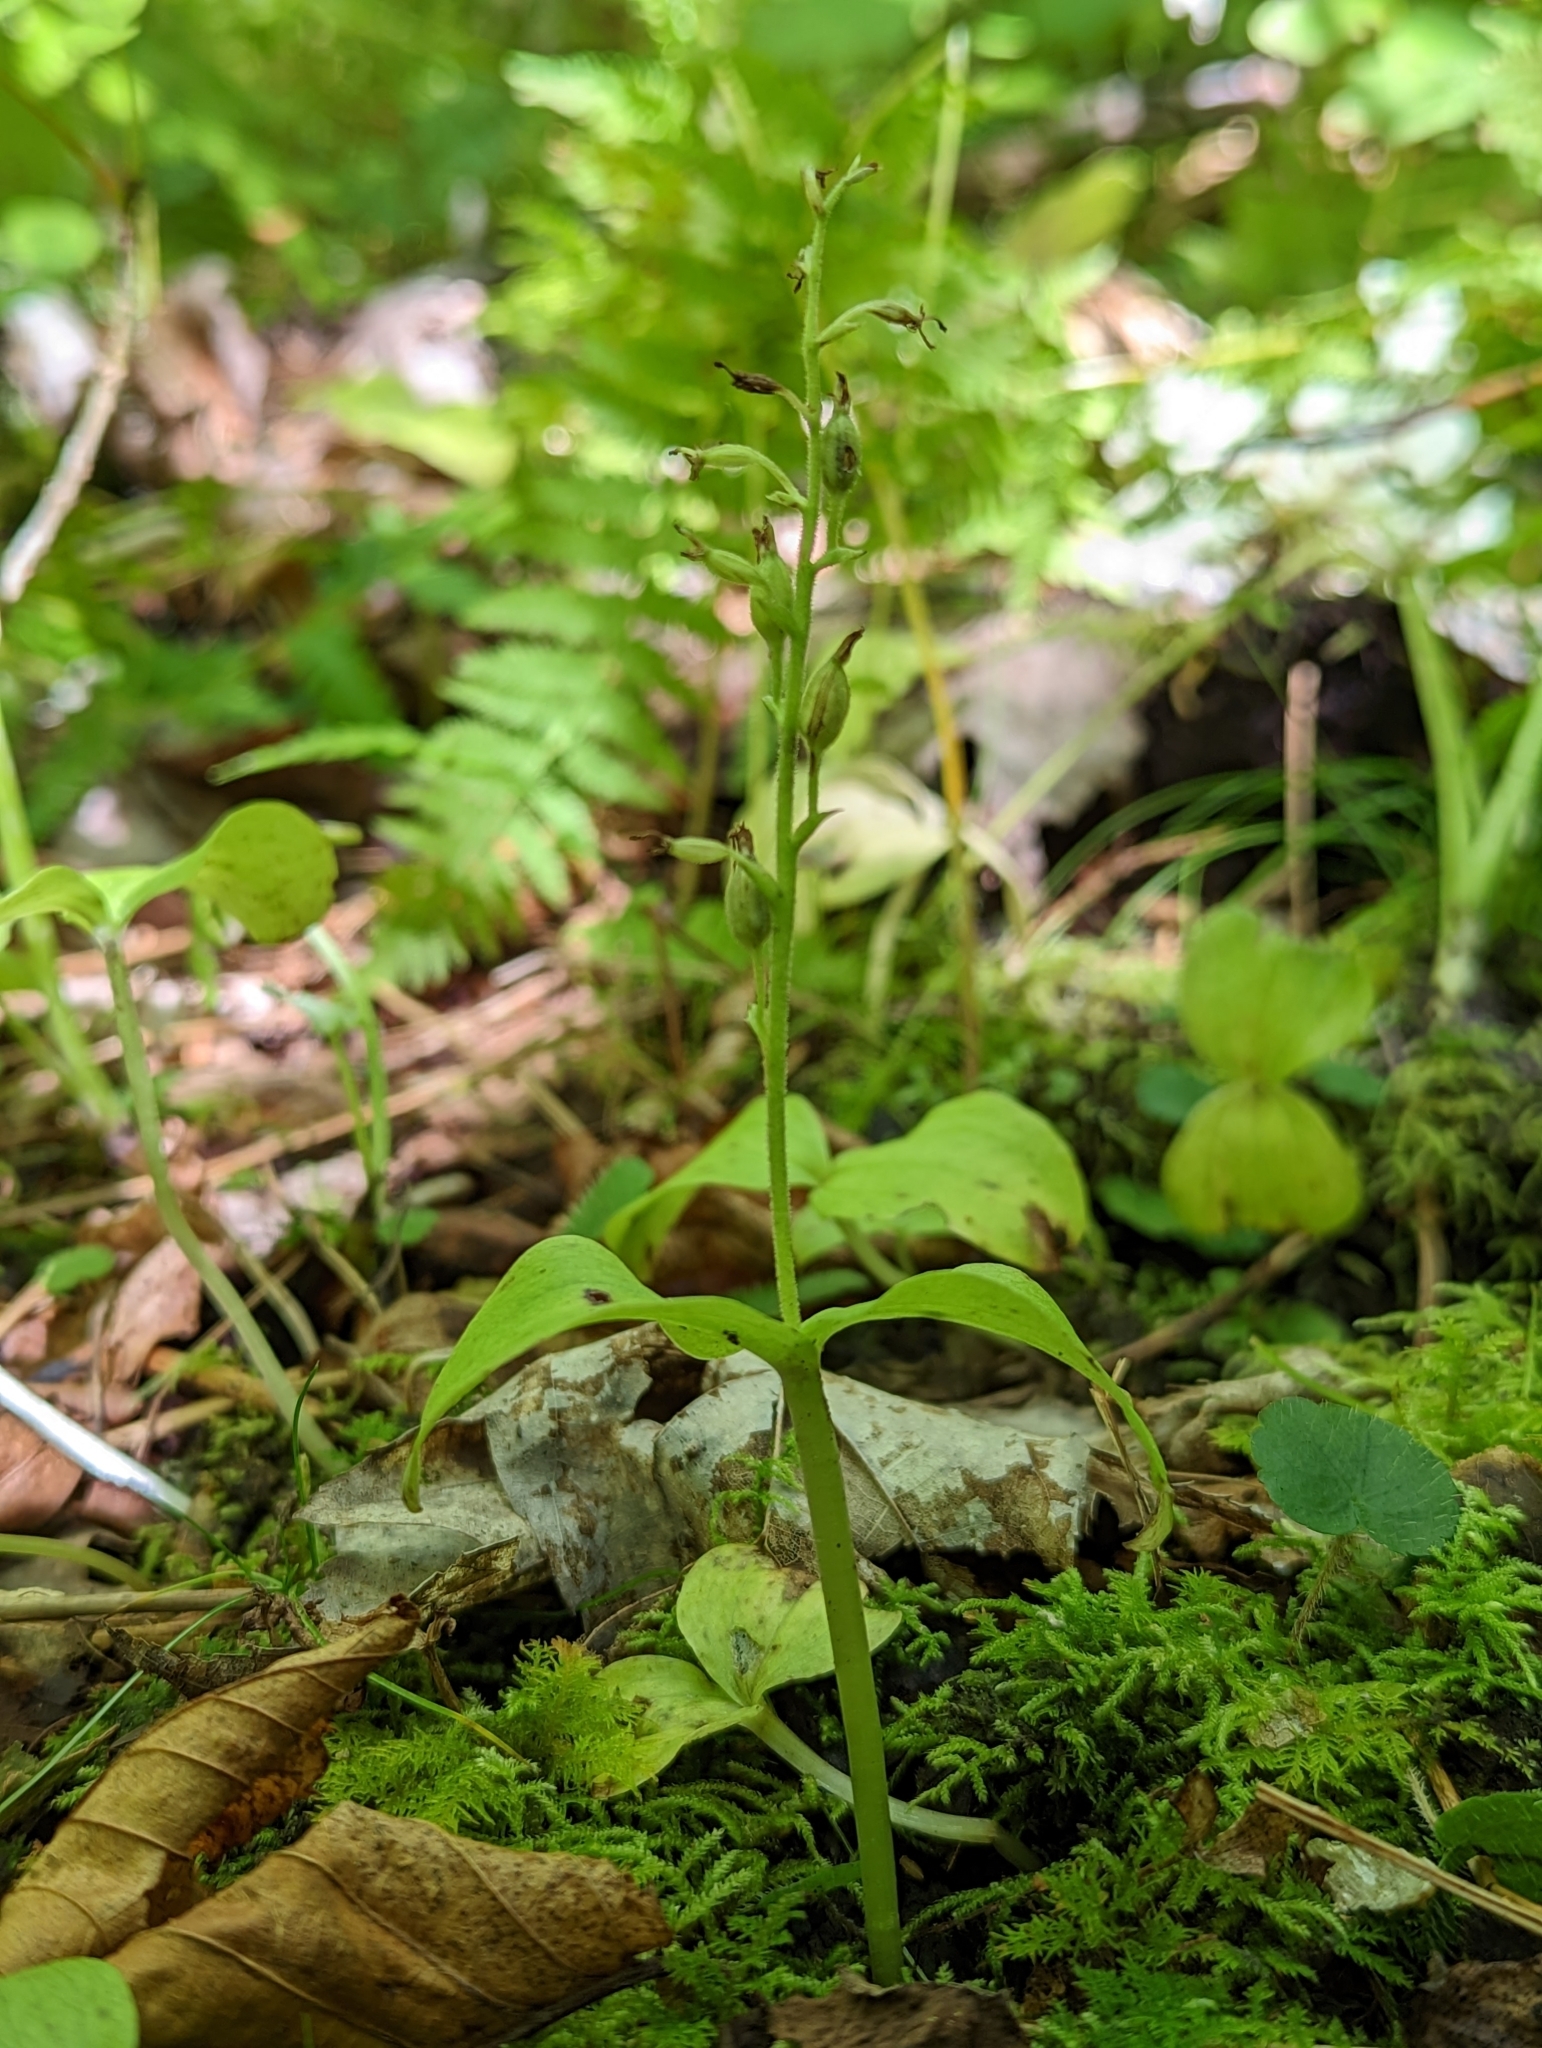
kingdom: Plantae
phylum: Tracheophyta
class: Liliopsida
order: Asparagales
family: Orchidaceae
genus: Neottia
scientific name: Neottia convallarioides
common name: Broadleaf twayblade
